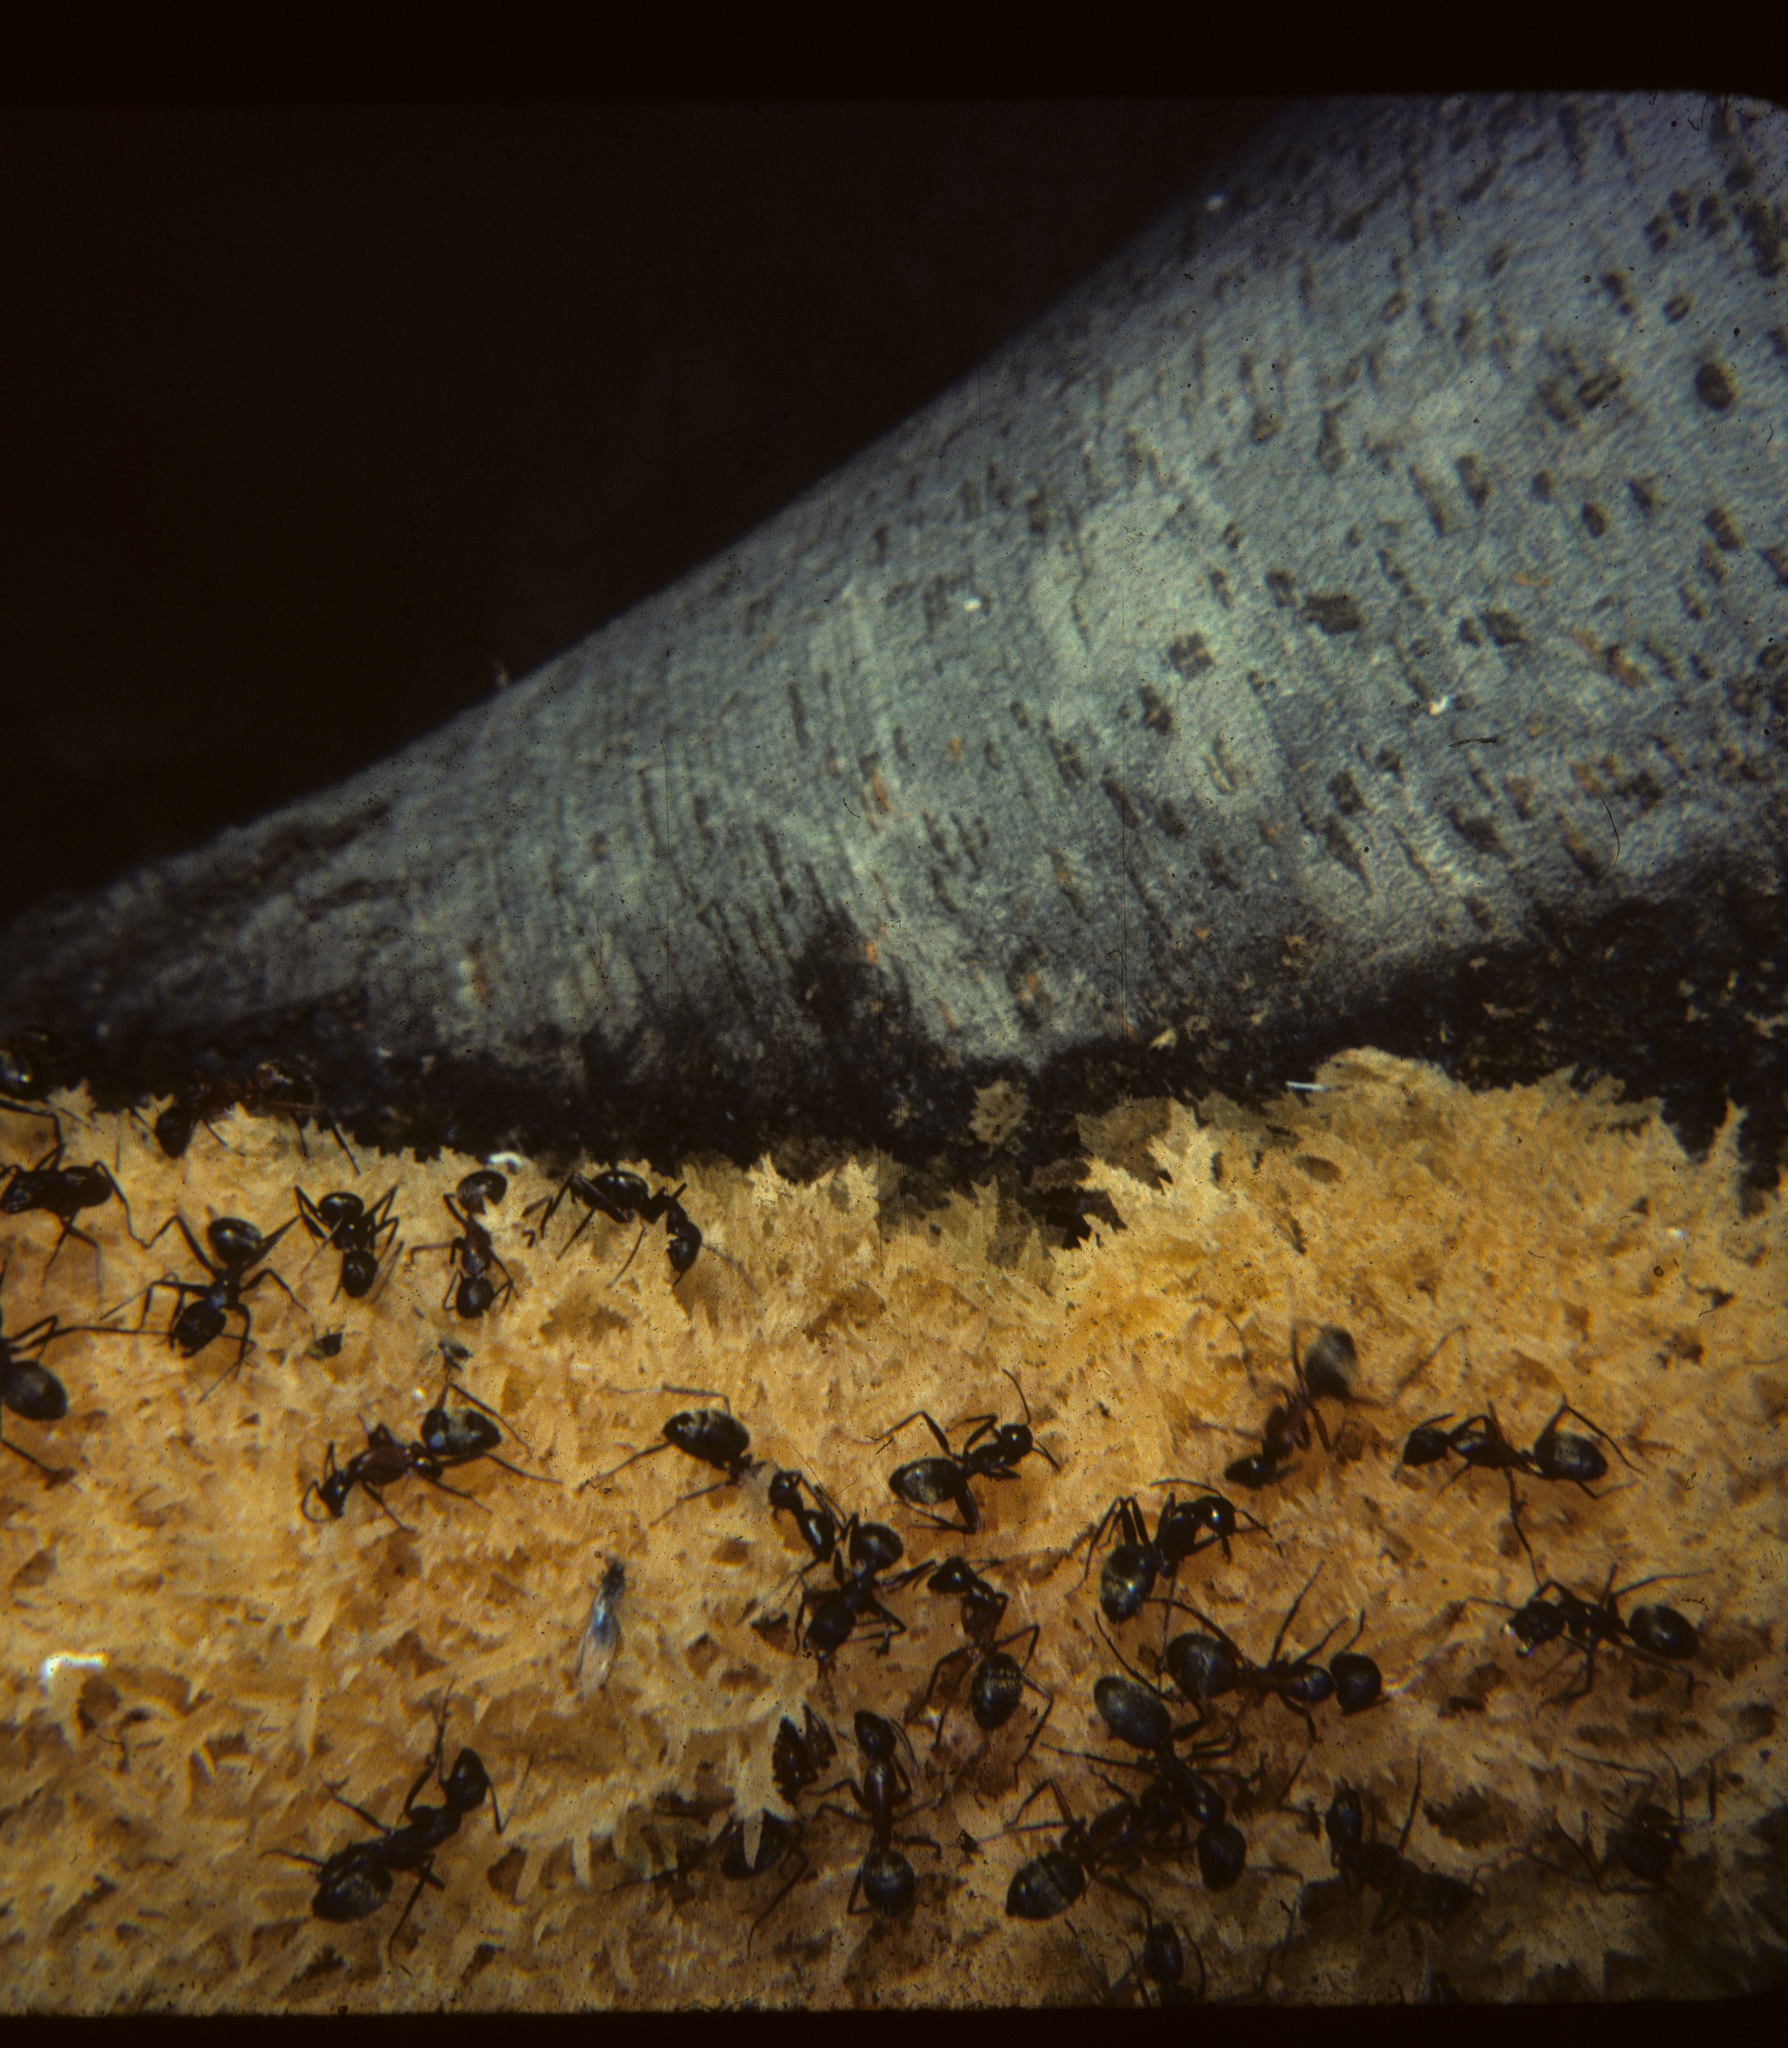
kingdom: Fungi
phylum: Ascomycota
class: Dothideomycetes
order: Capnodiales
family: Capnodiaceae
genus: Scorias
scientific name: Scorias spongiosa
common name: Black sooty mold
